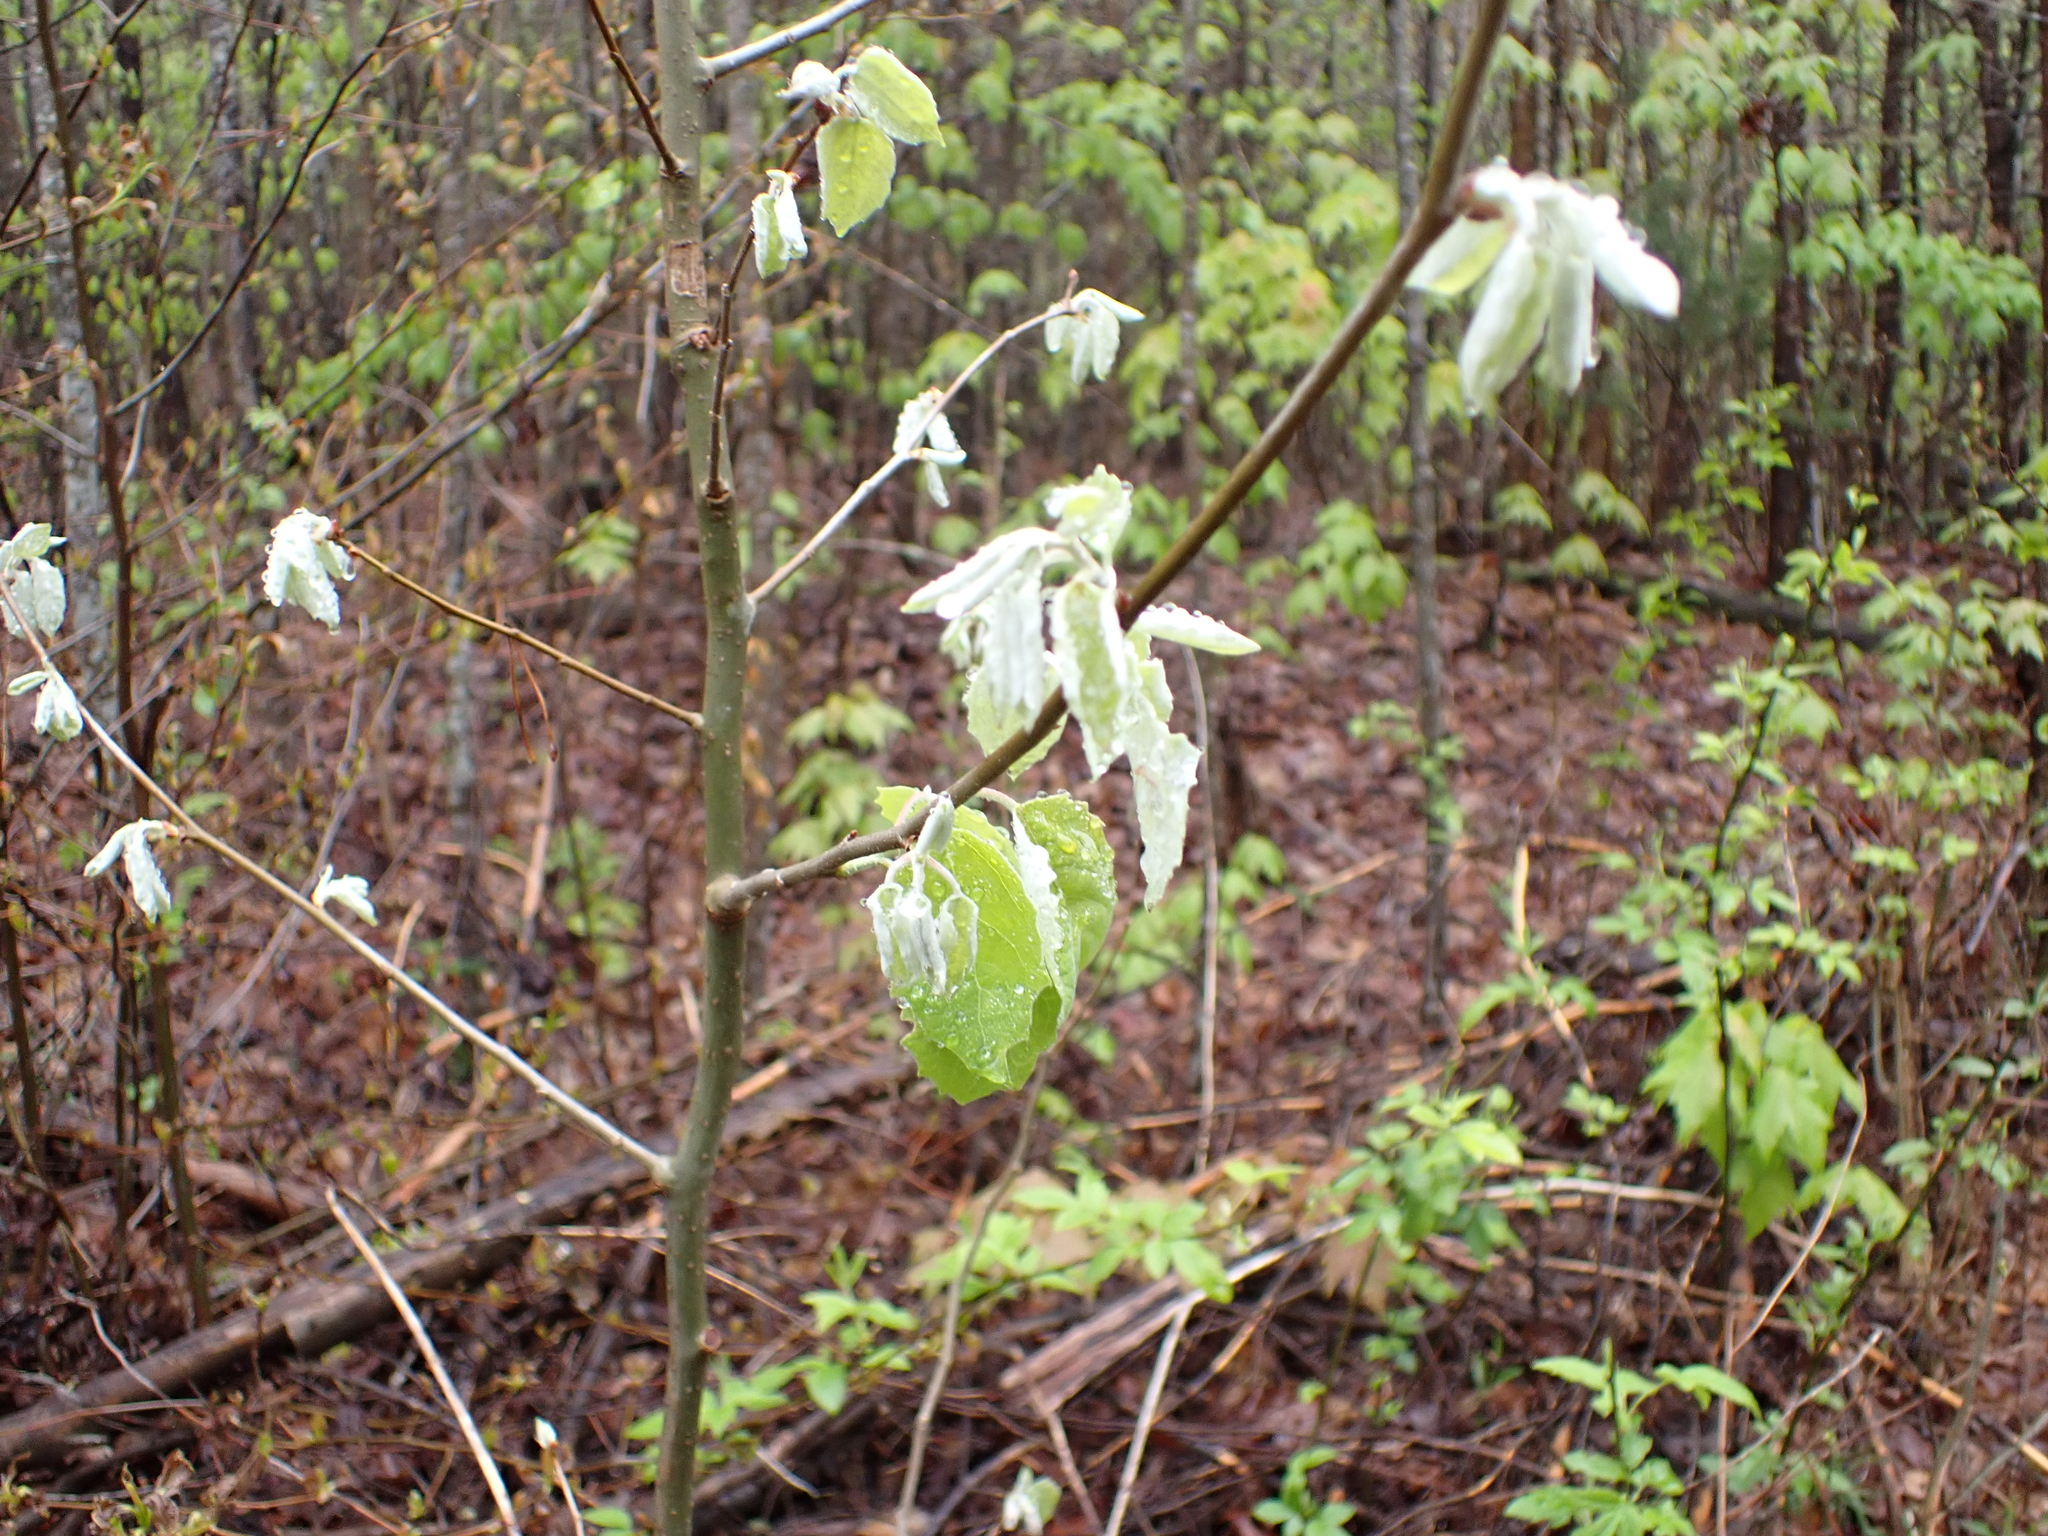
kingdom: Plantae
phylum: Tracheophyta
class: Magnoliopsida
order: Malpighiales
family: Salicaceae
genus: Populus
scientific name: Populus alba
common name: White poplar
